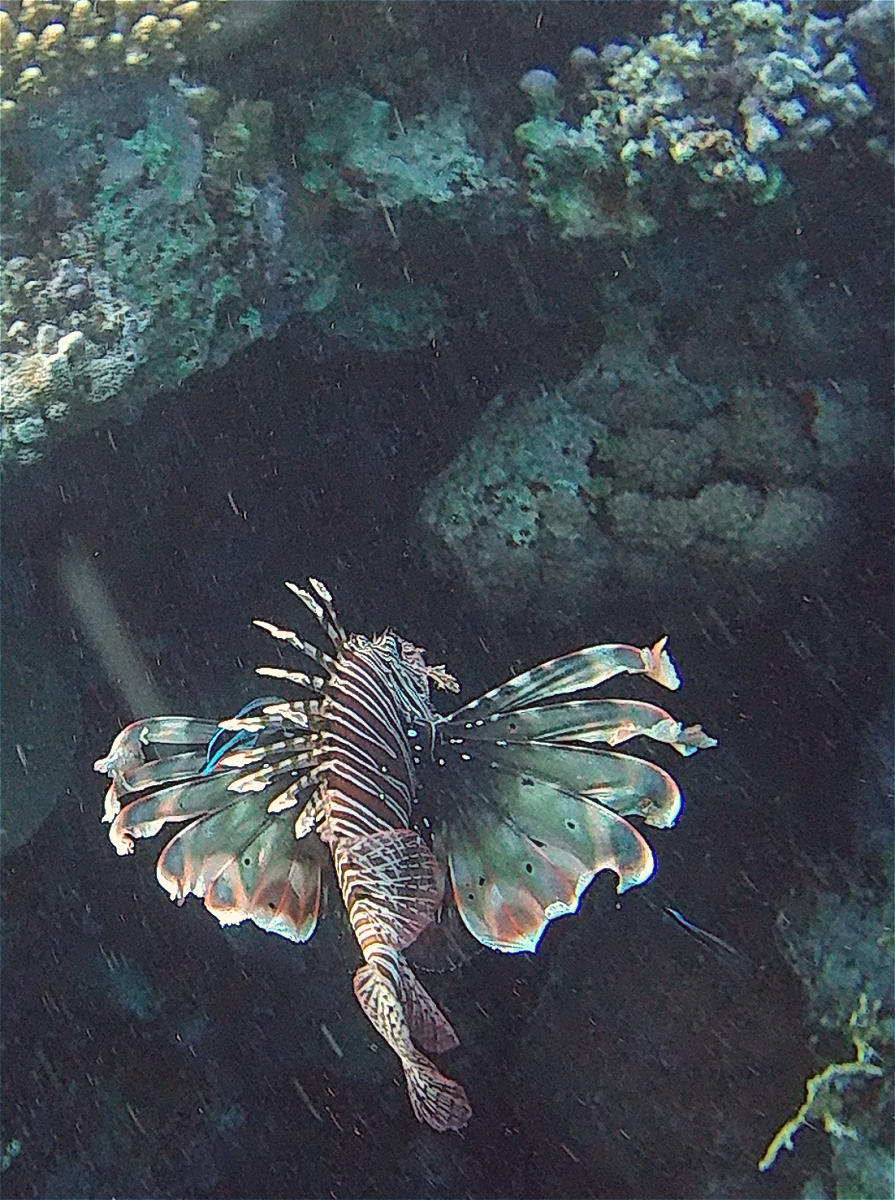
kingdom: Animalia
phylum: Chordata
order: Scorpaeniformes
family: Scorpaenidae
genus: Pterois
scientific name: Pterois miles
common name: Devil firefish
